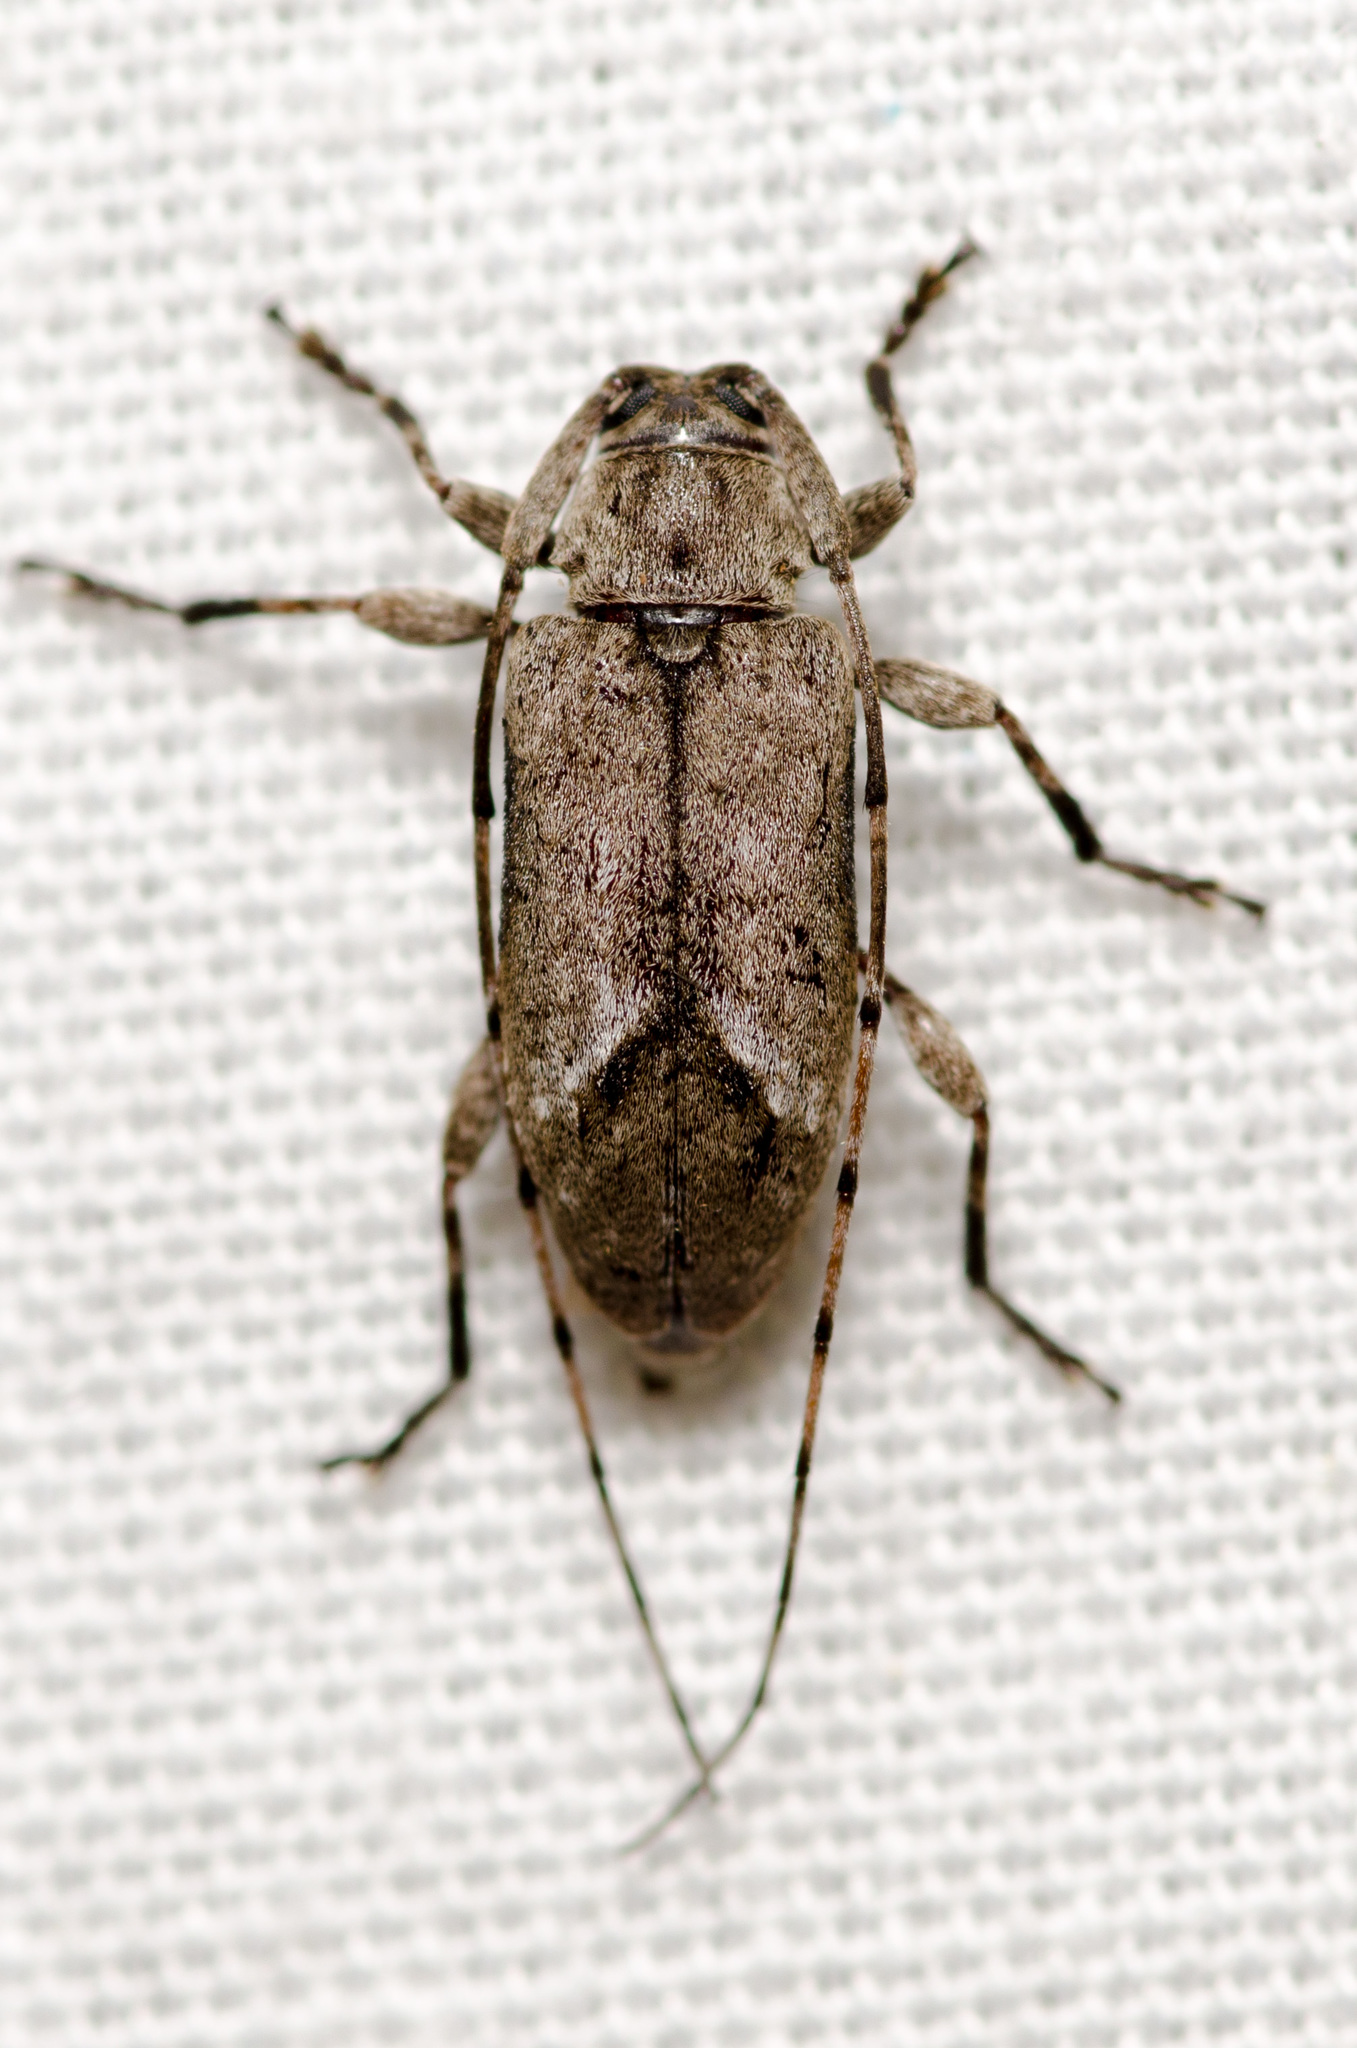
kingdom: Animalia
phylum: Arthropoda
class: Insecta
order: Coleoptera
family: Cerambycidae
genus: Sternidius
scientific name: Sternidius mimeticus
